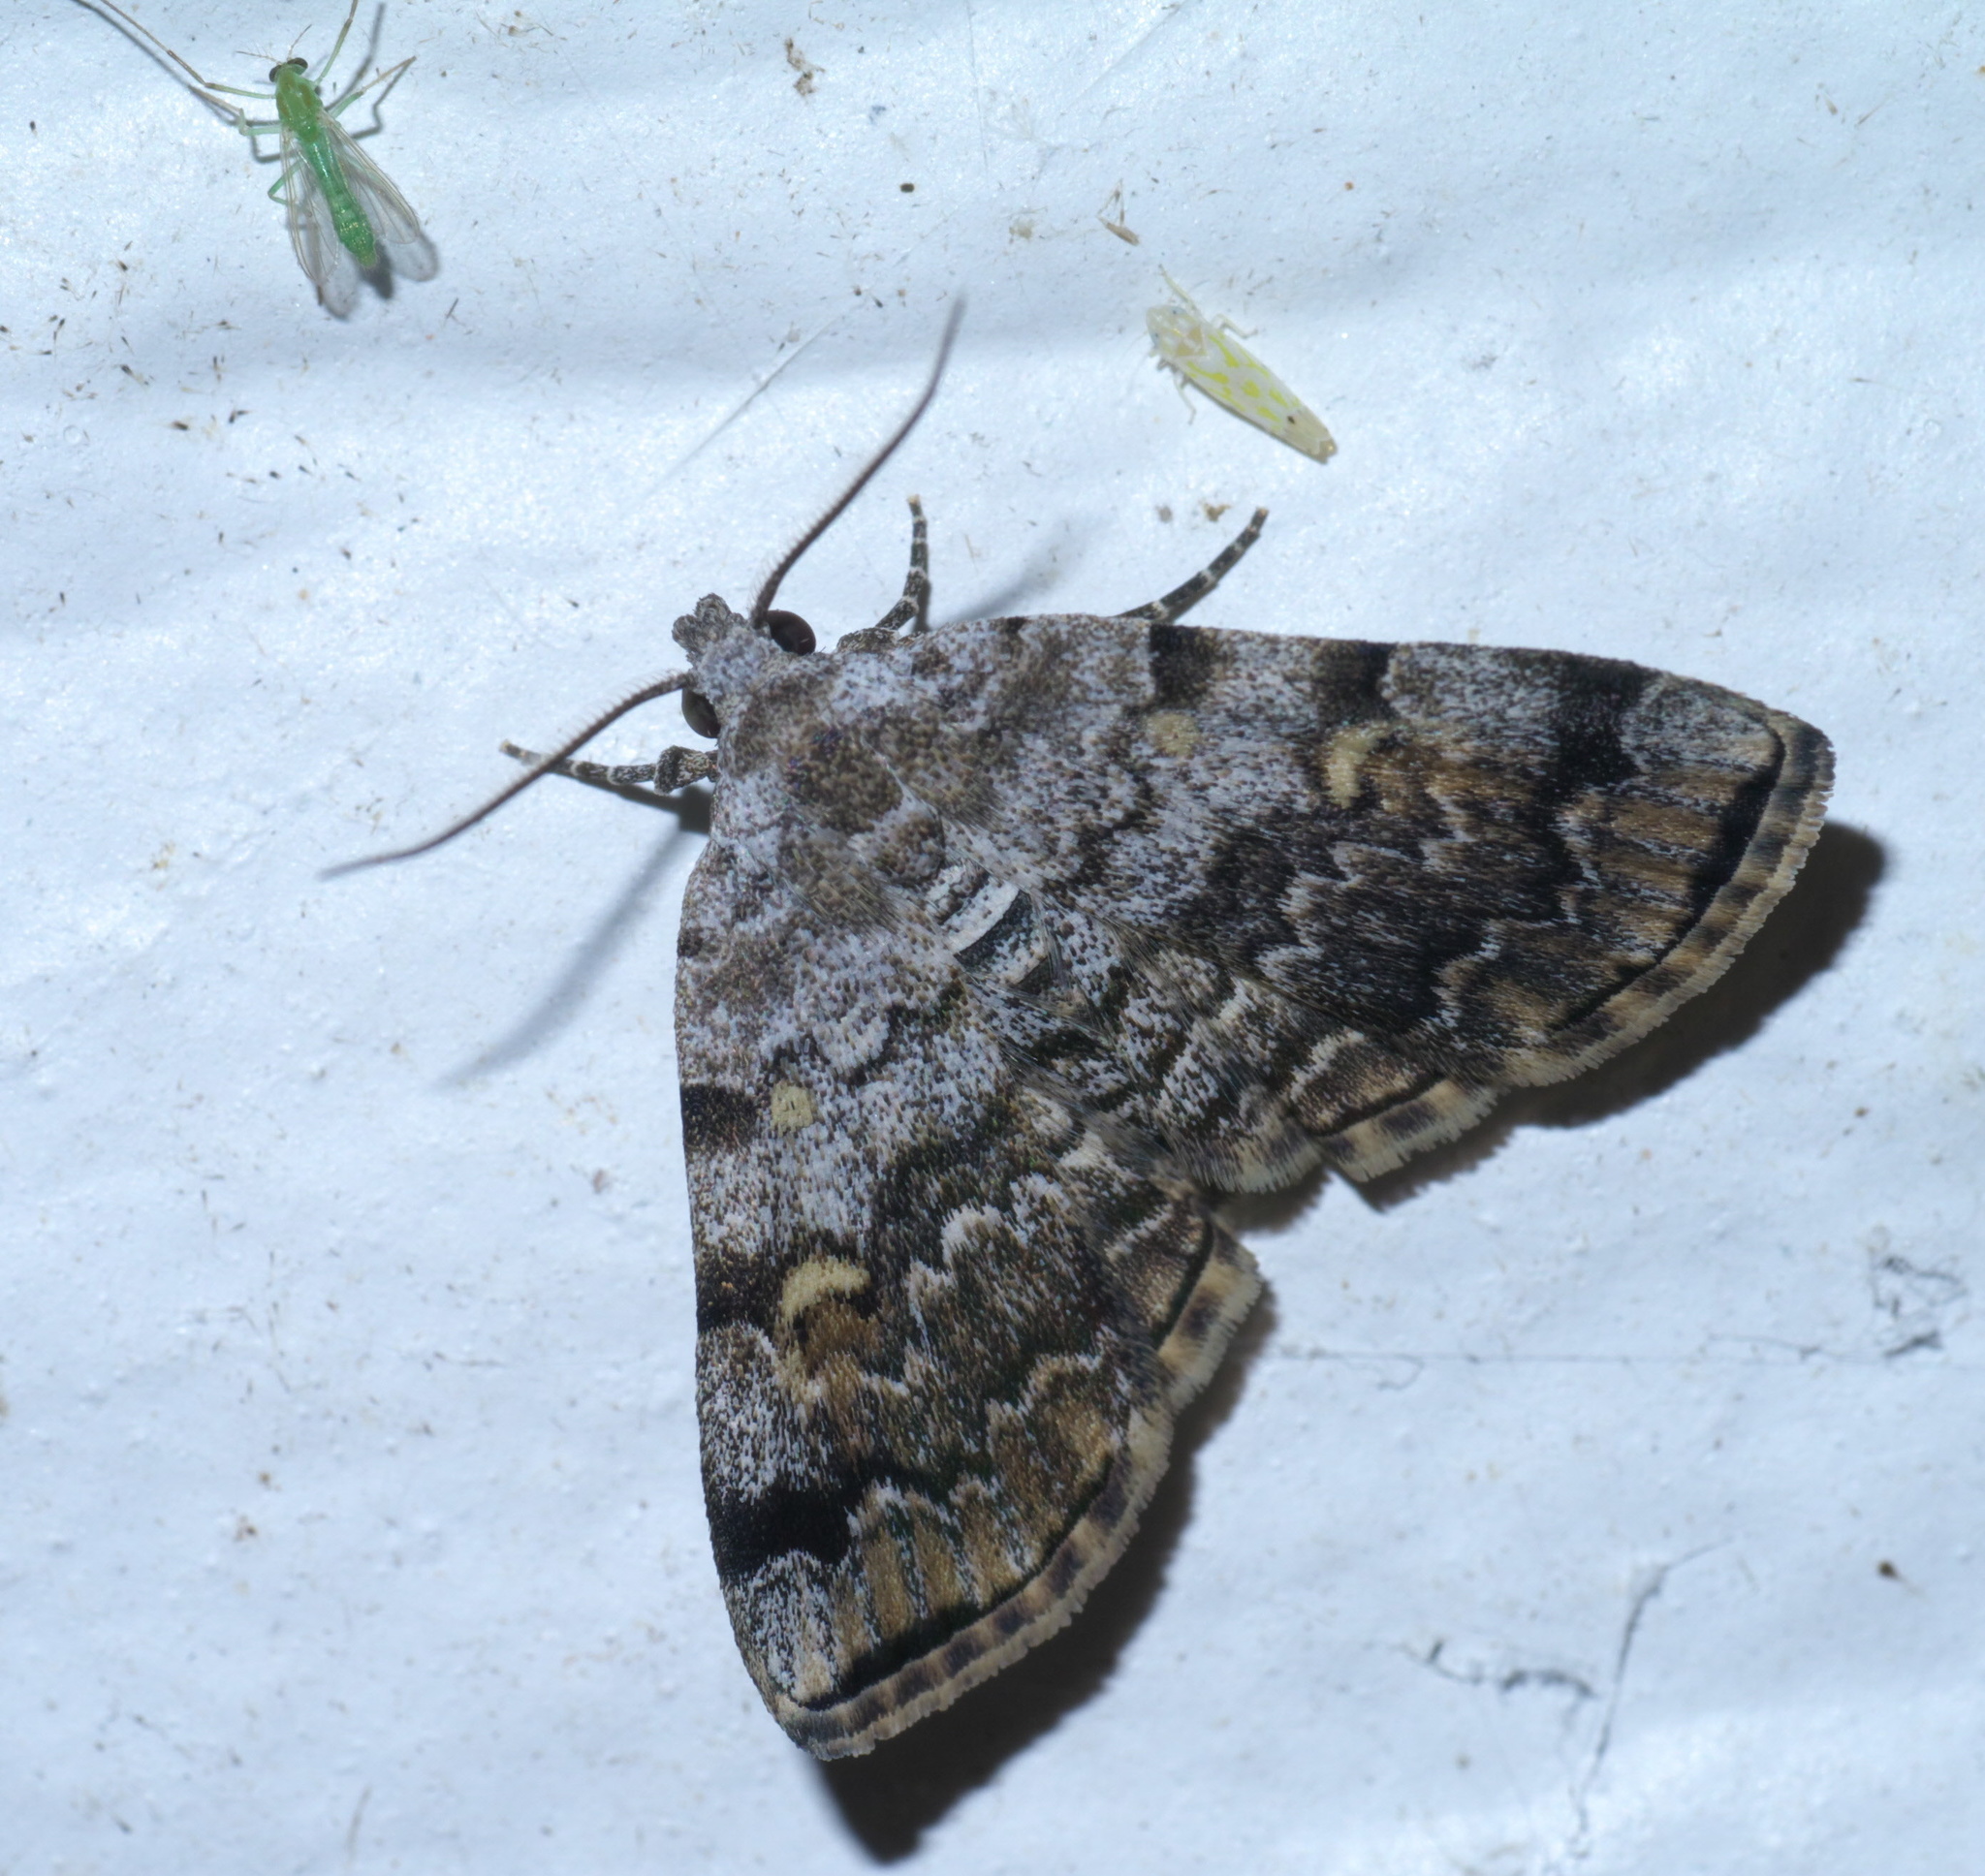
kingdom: Animalia
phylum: Arthropoda
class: Insecta
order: Lepidoptera
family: Erebidae
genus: Idia
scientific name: Idia americalis
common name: American idia moth
